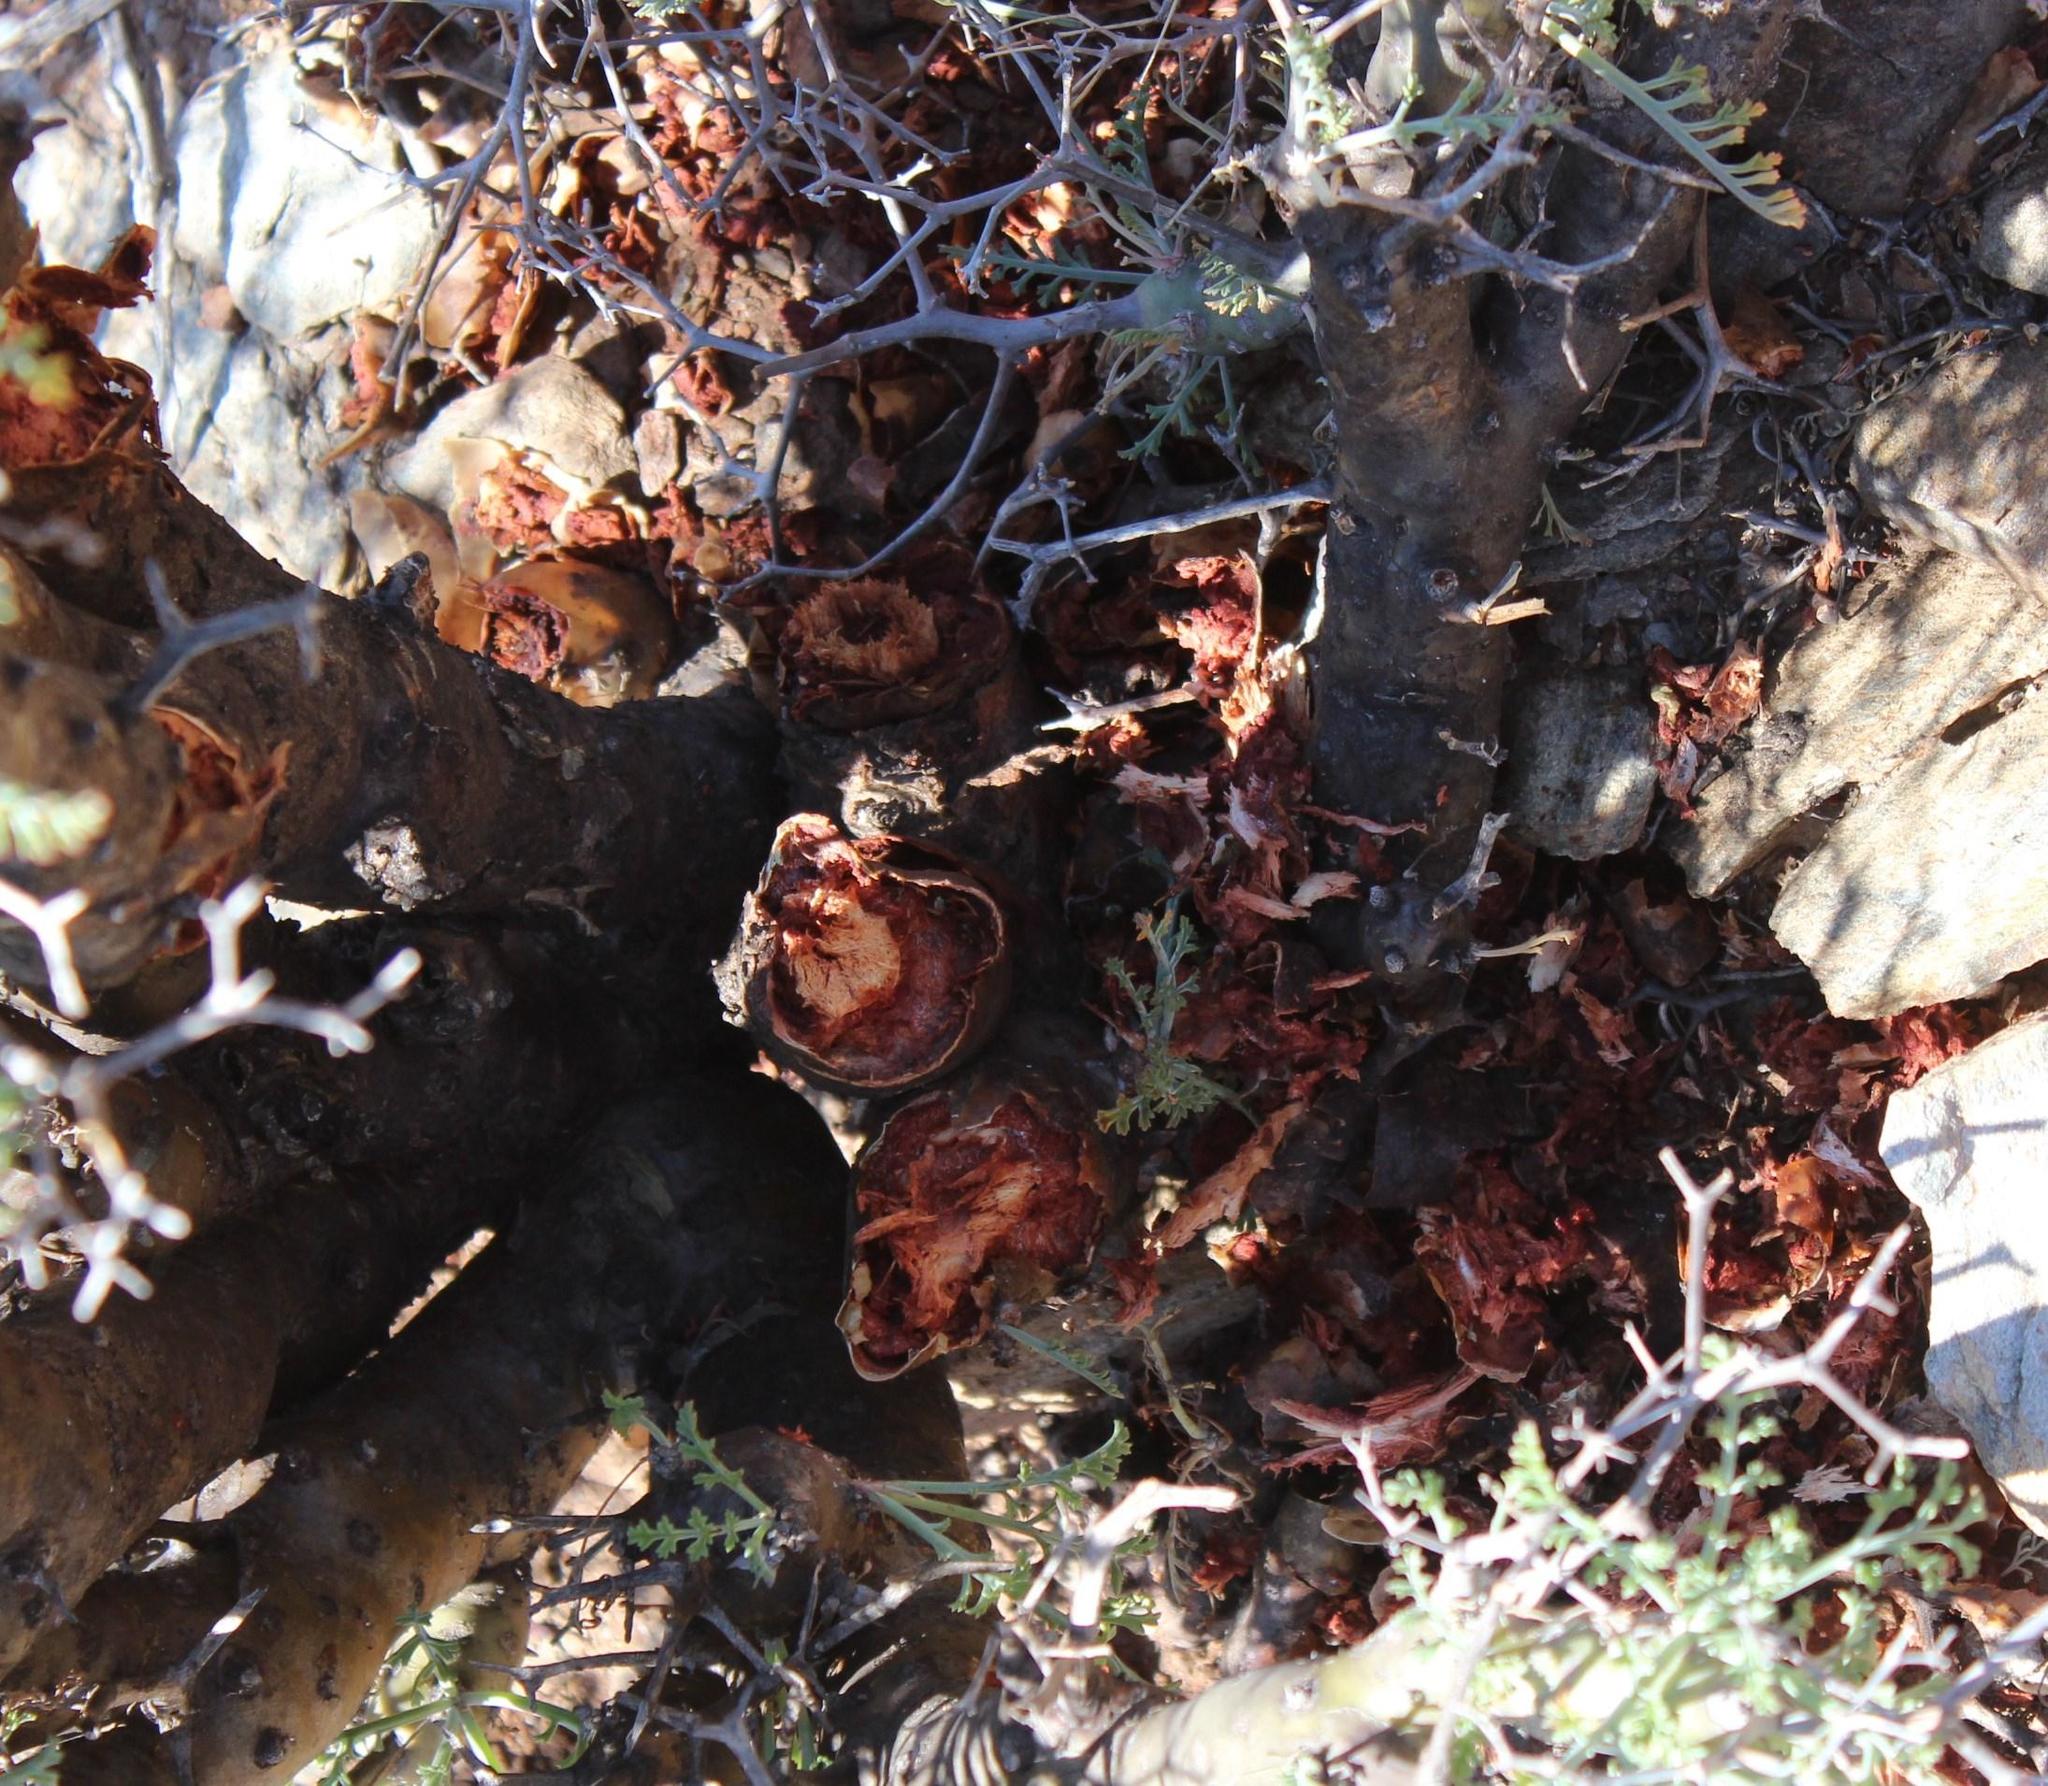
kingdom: Plantae
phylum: Tracheophyta
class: Magnoliopsida
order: Geraniales
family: Geraniaceae
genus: Pelargonium
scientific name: Pelargonium crithmifolium
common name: Samphire-leaf pelargonium
